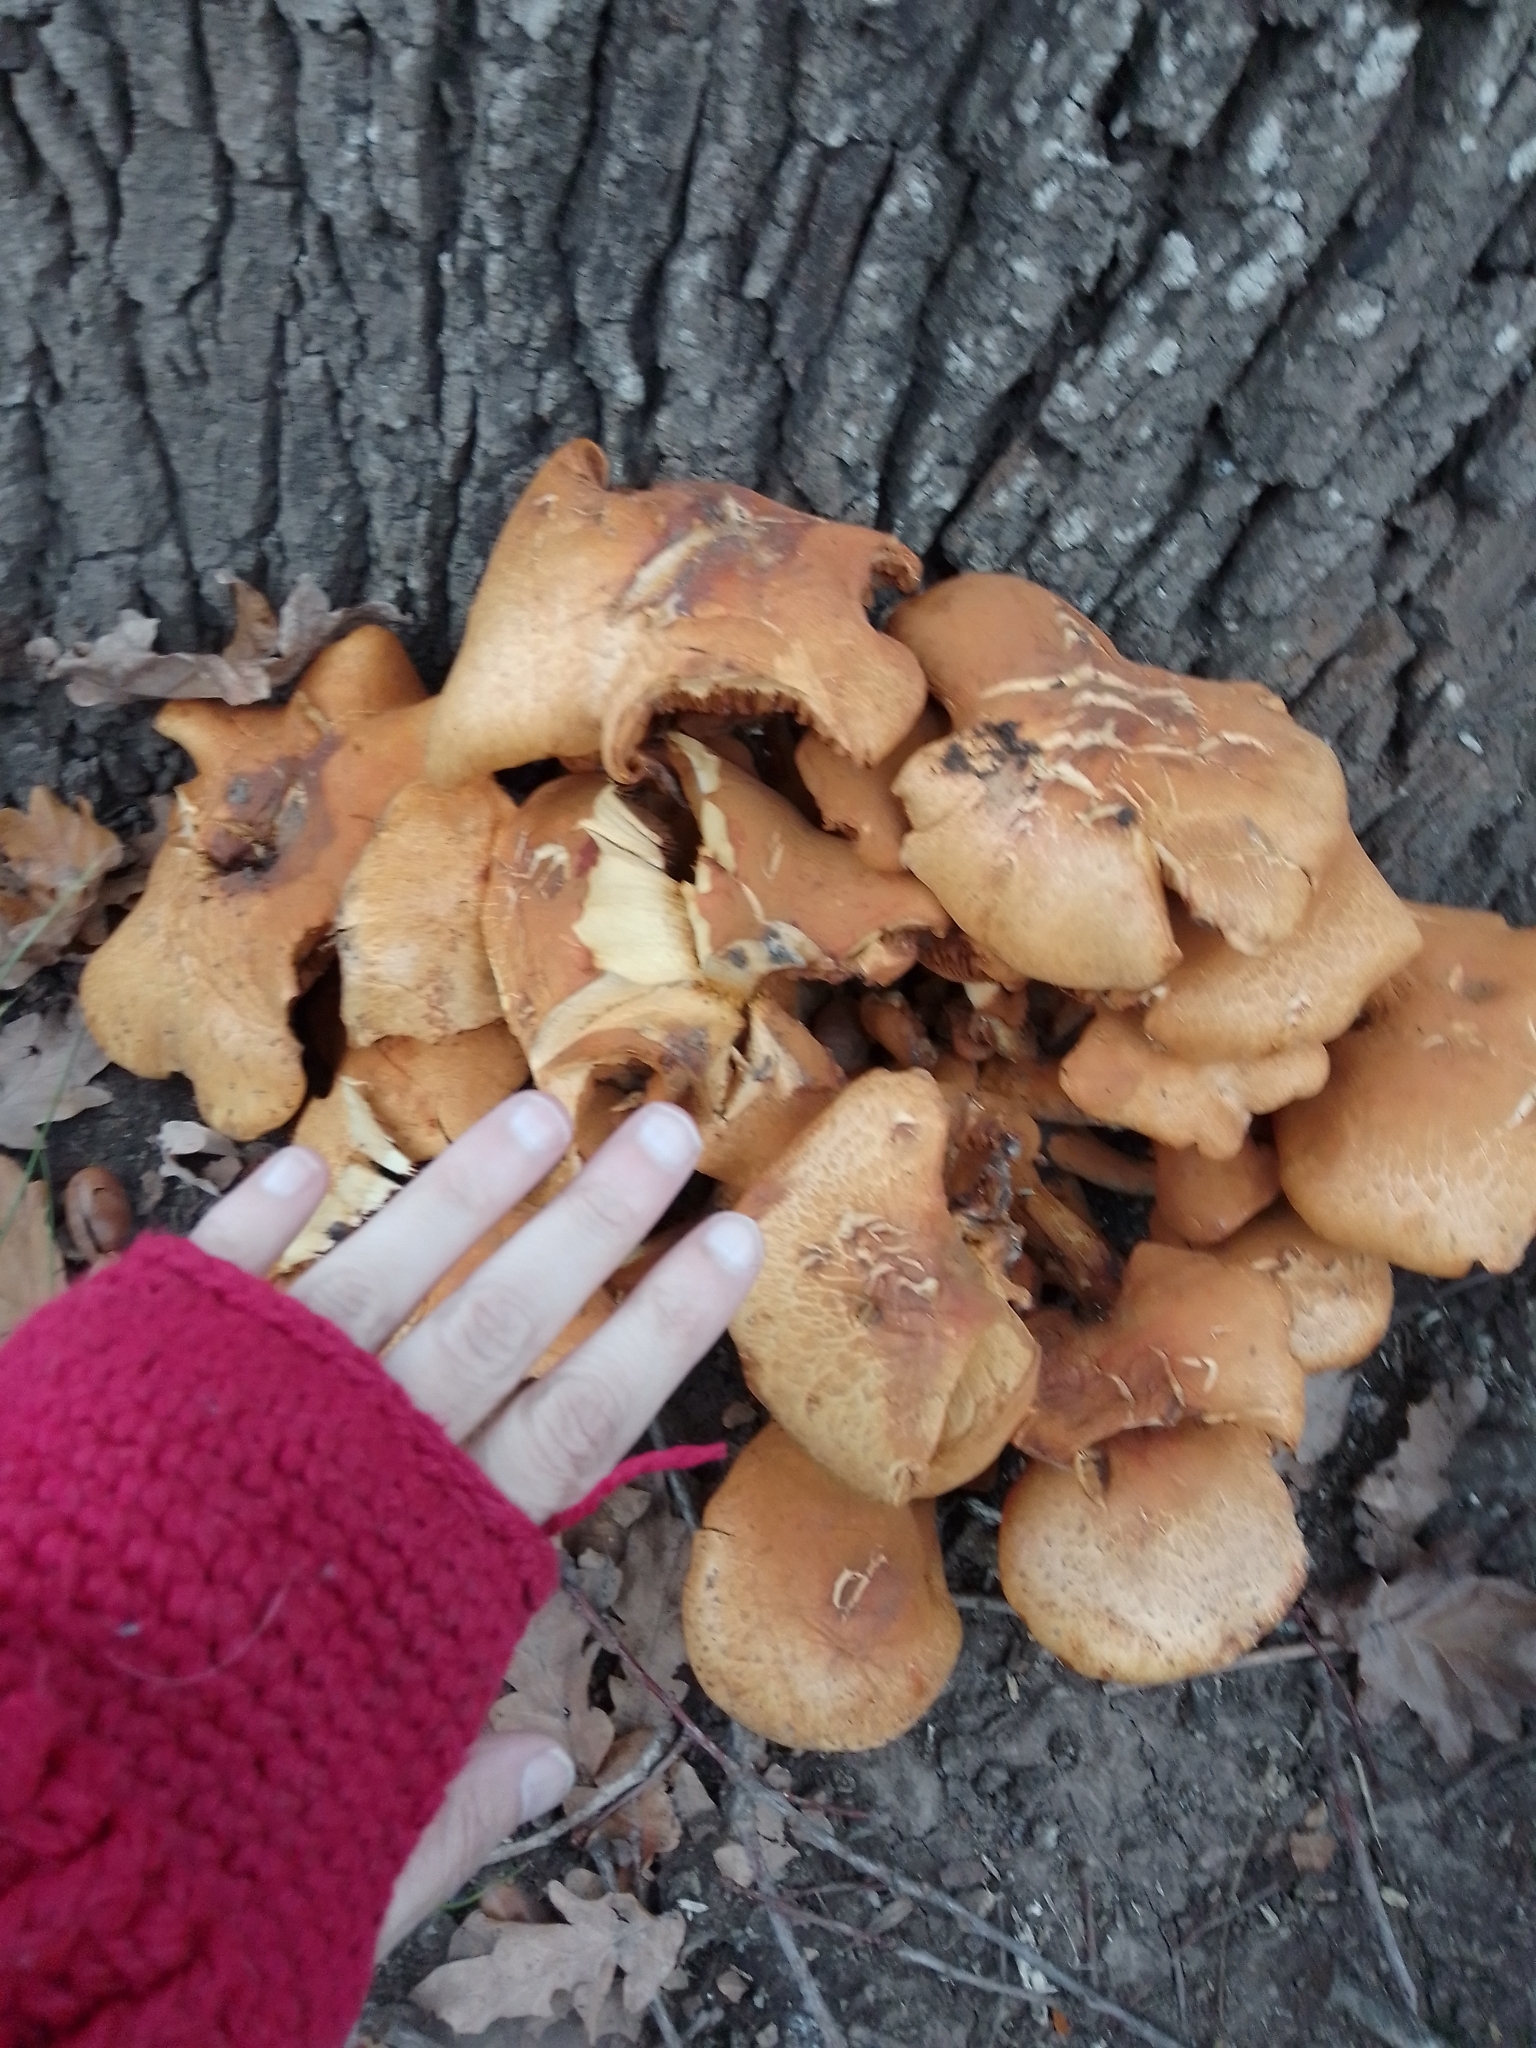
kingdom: Fungi
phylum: Basidiomycota
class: Agaricomycetes
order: Agaricales
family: Hymenogastraceae
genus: Gymnopilus
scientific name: Gymnopilus junonius
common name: Spectacular rustgill
